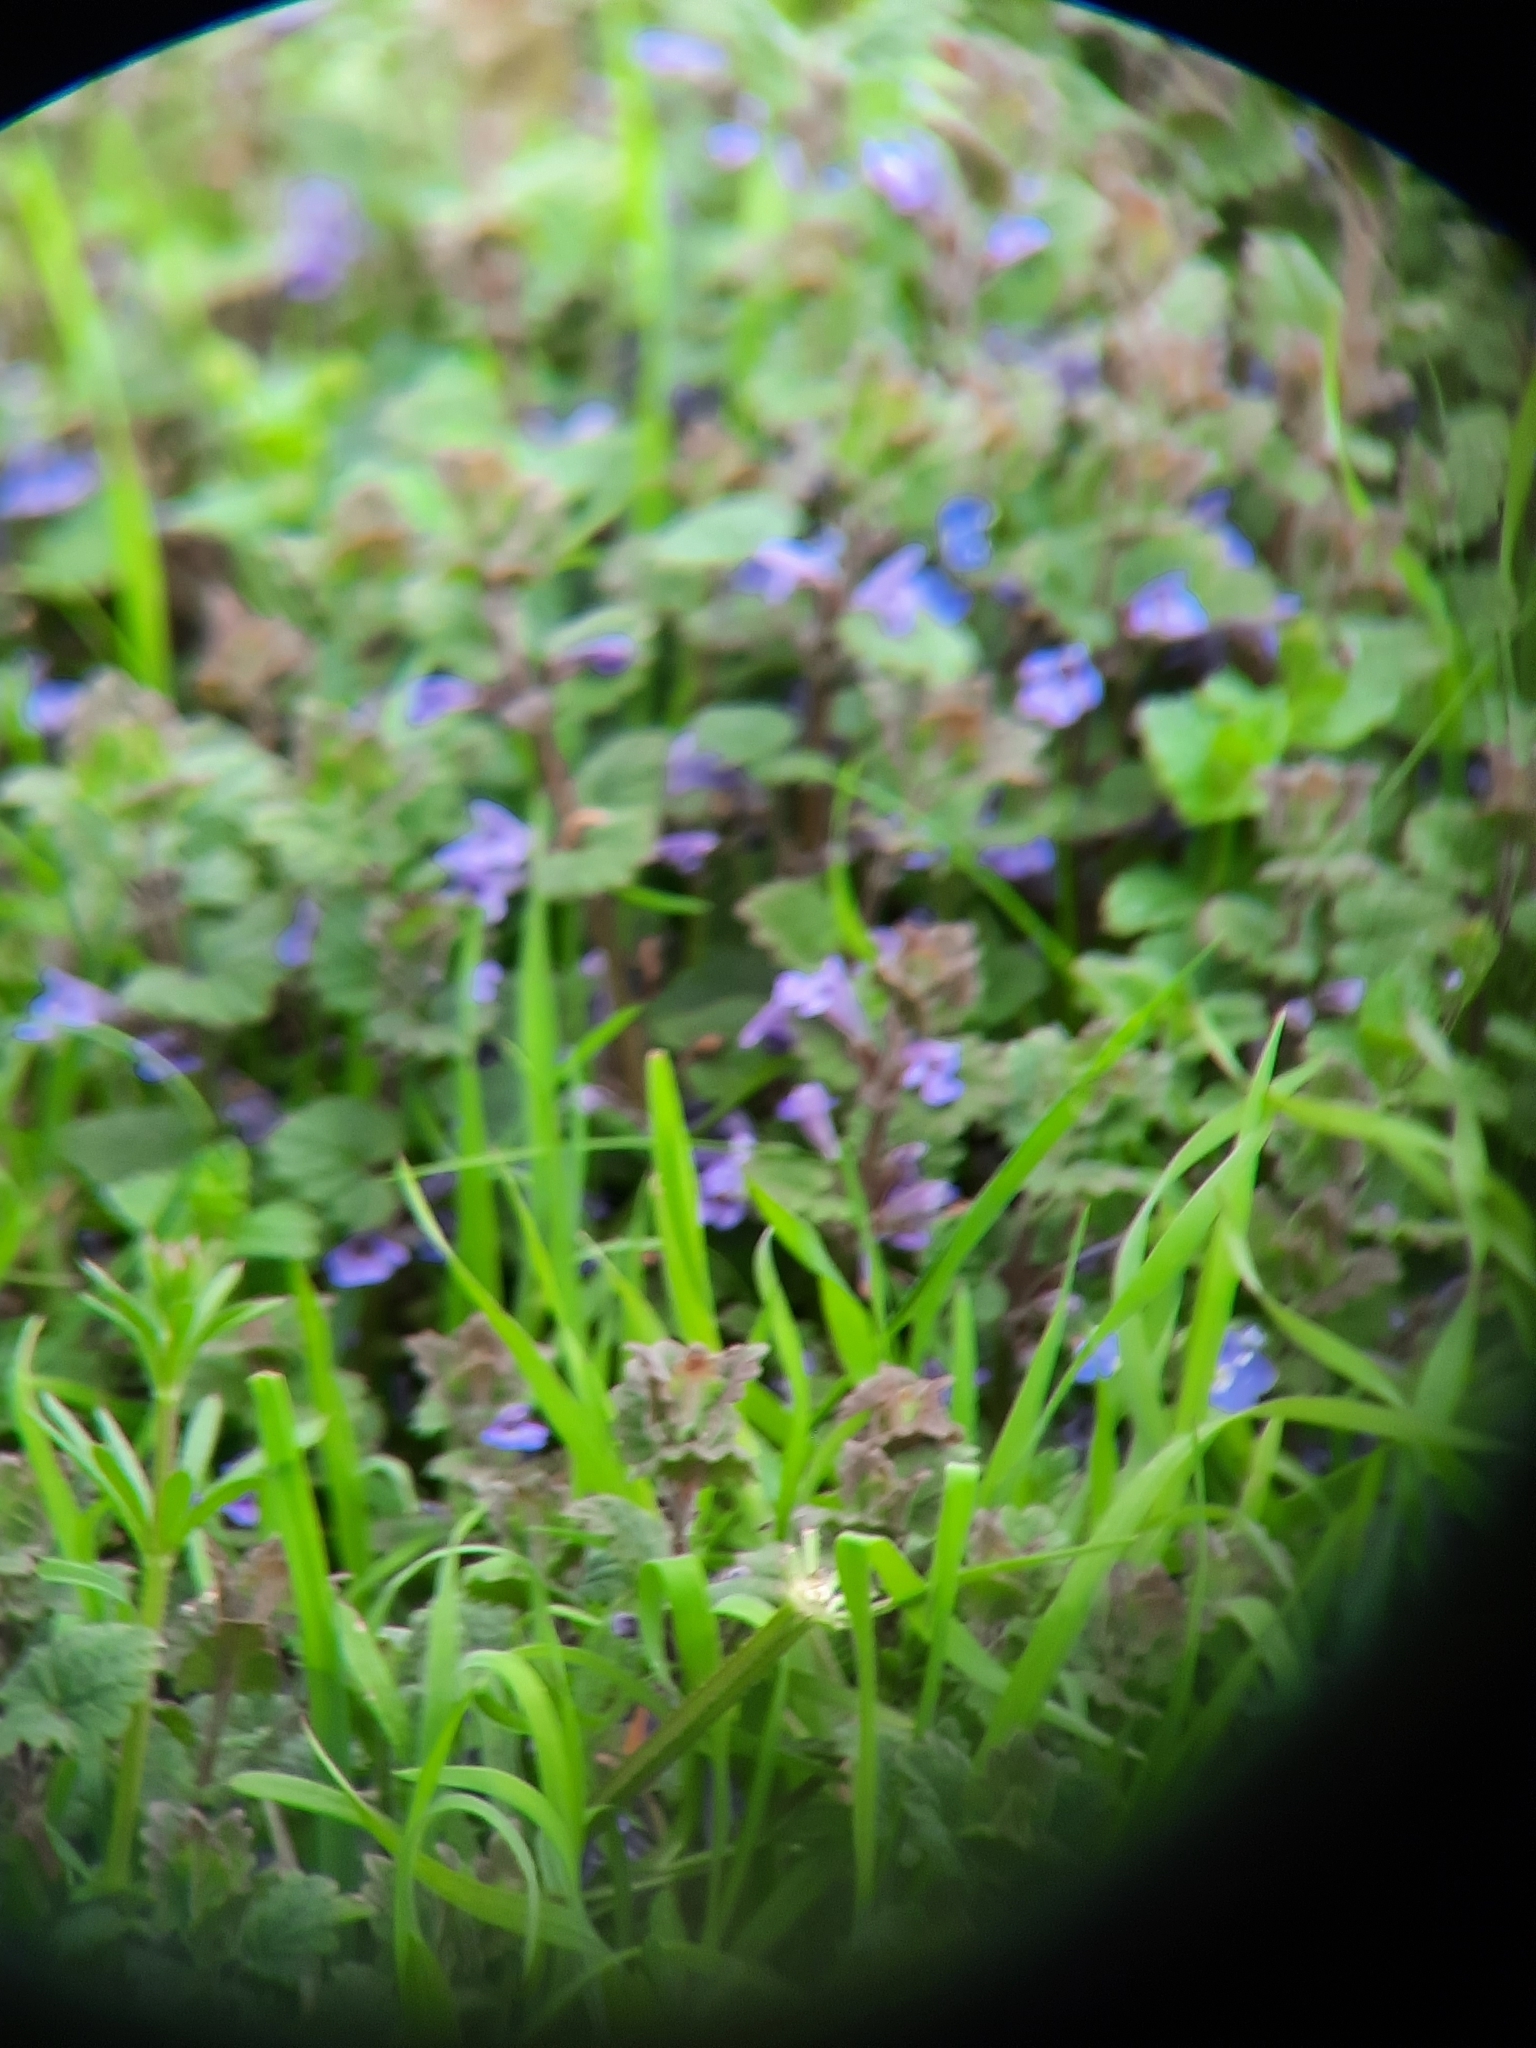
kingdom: Plantae
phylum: Tracheophyta
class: Magnoliopsida
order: Lamiales
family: Lamiaceae
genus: Glechoma
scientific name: Glechoma hederacea
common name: Ground ivy
